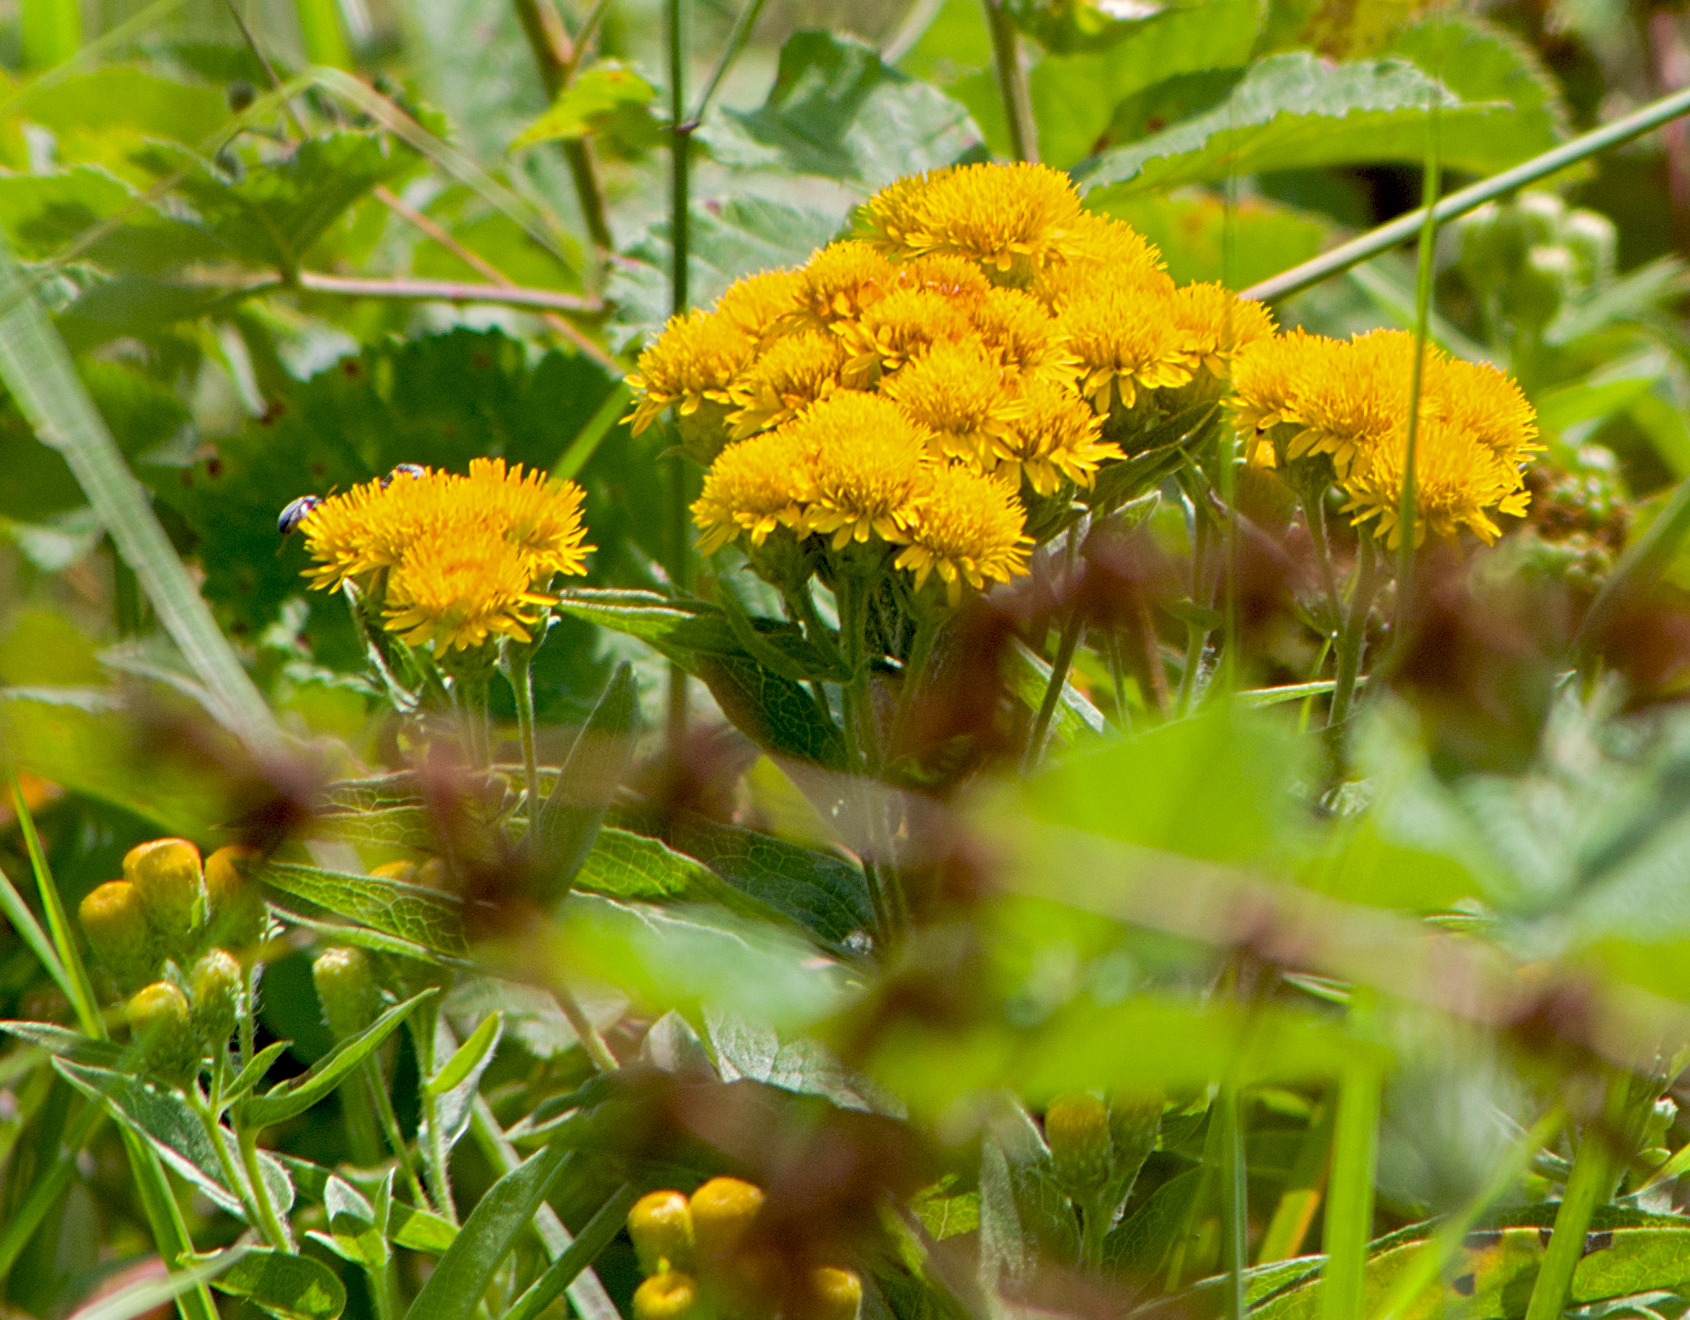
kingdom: Plantae
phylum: Tracheophyta
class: Magnoliopsida
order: Asterales
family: Asteraceae
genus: Pentanema
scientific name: Pentanema germanicum
